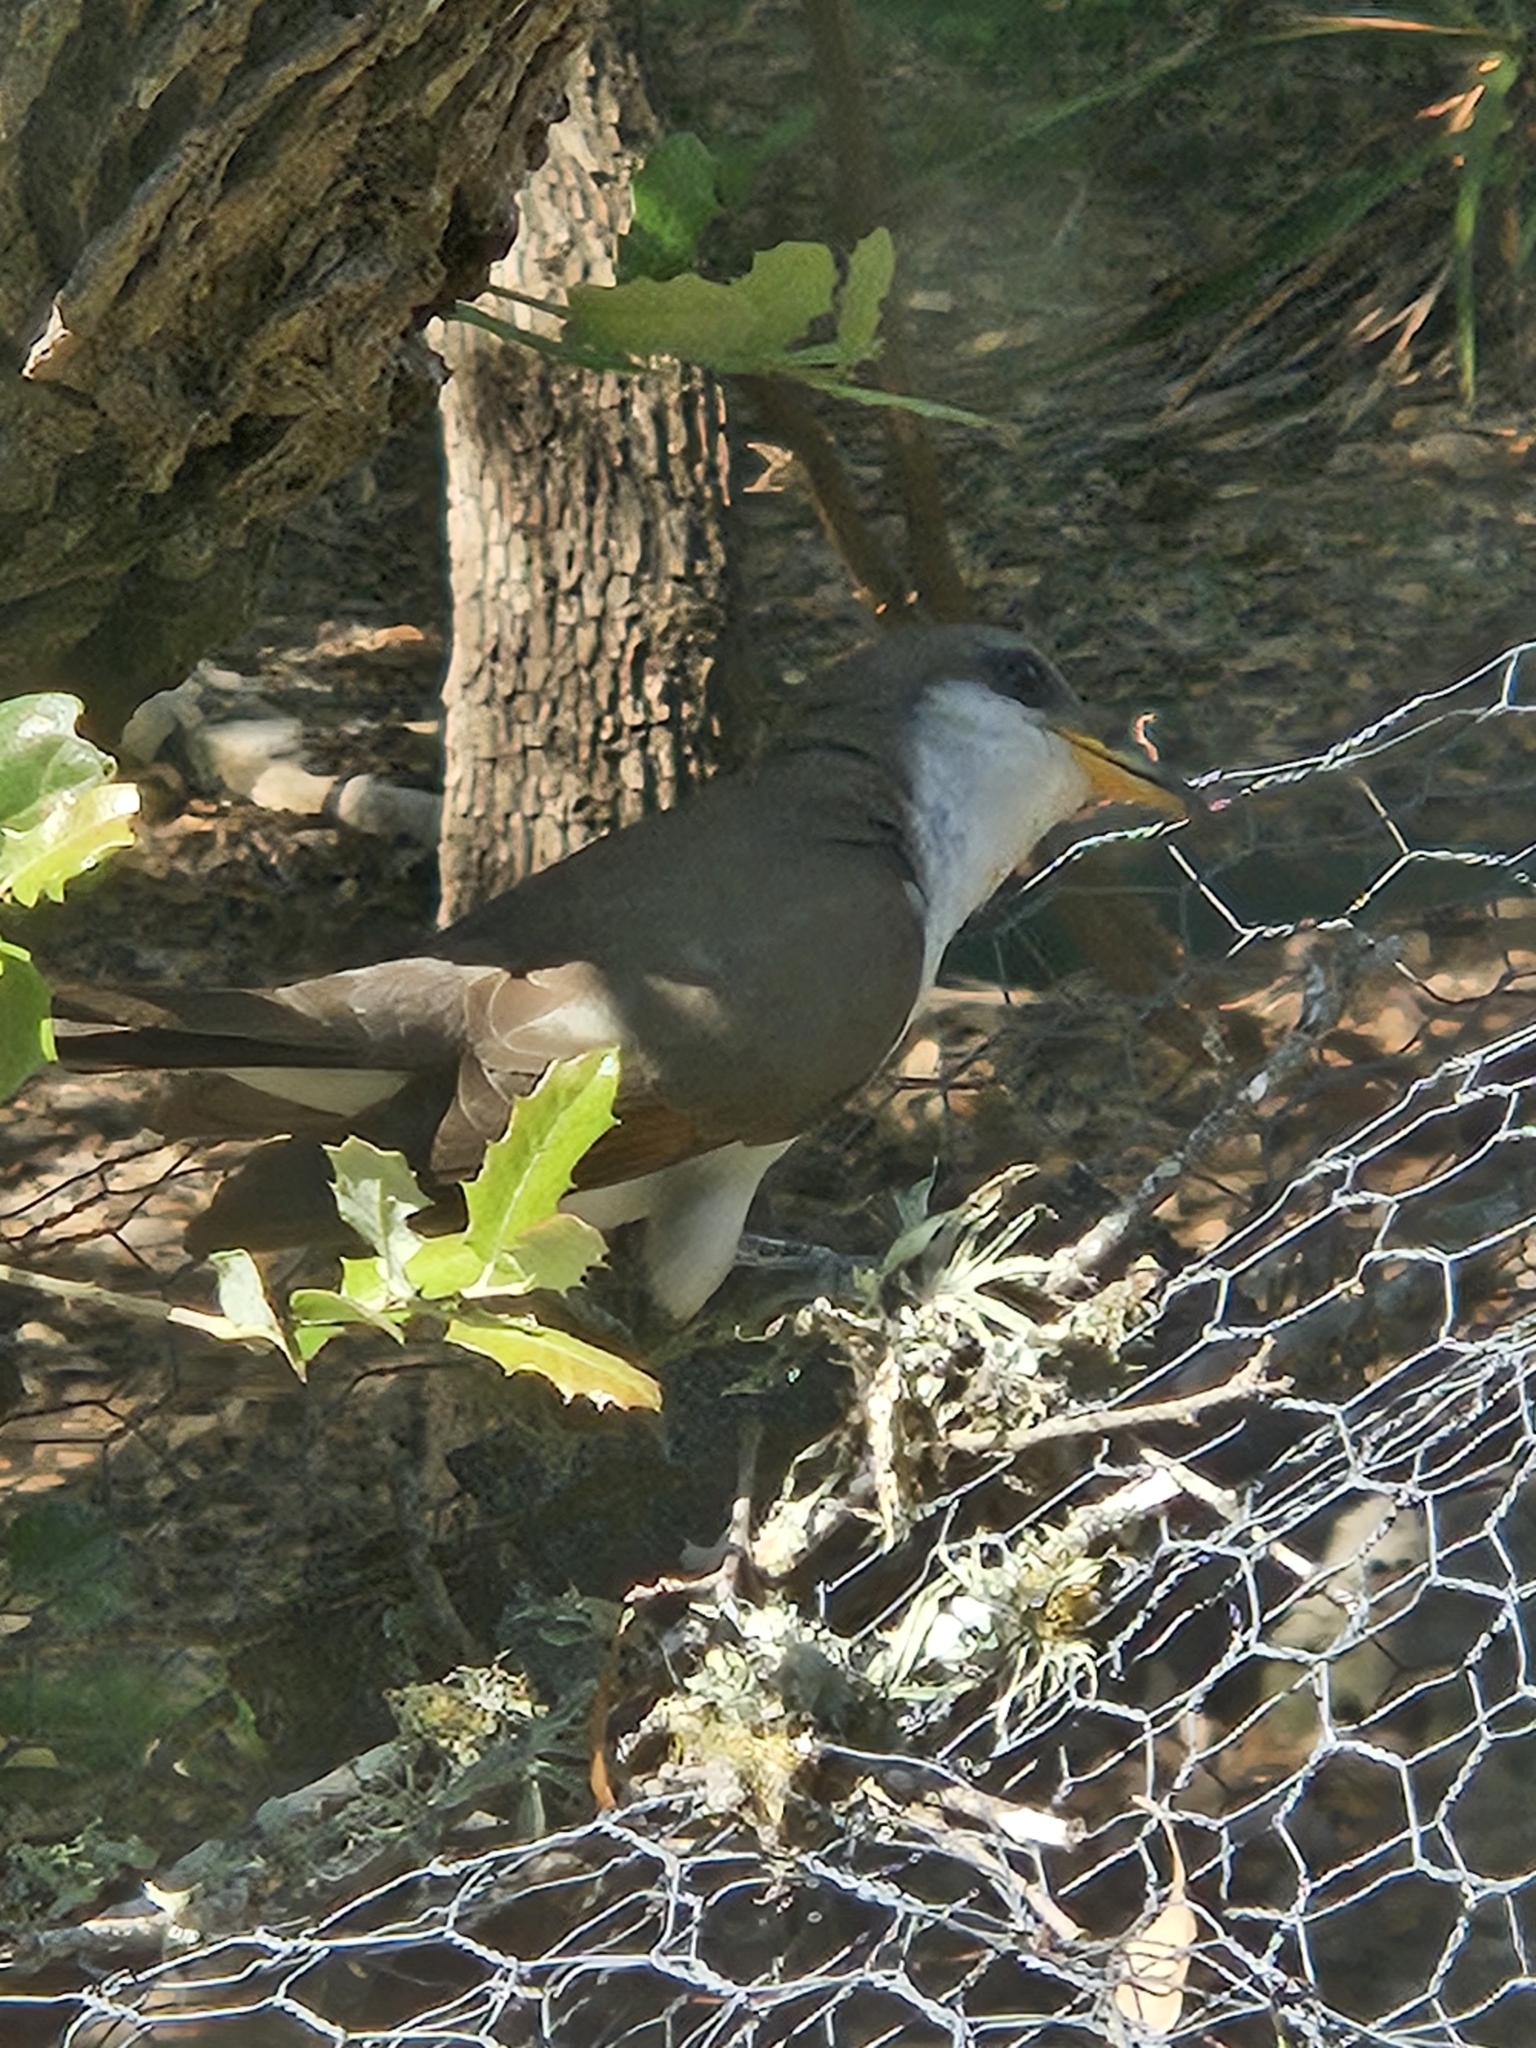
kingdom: Animalia
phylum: Chordata
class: Aves
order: Cuculiformes
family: Cuculidae
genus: Coccyzus
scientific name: Coccyzus americanus
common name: Yellow-billed cuckoo
